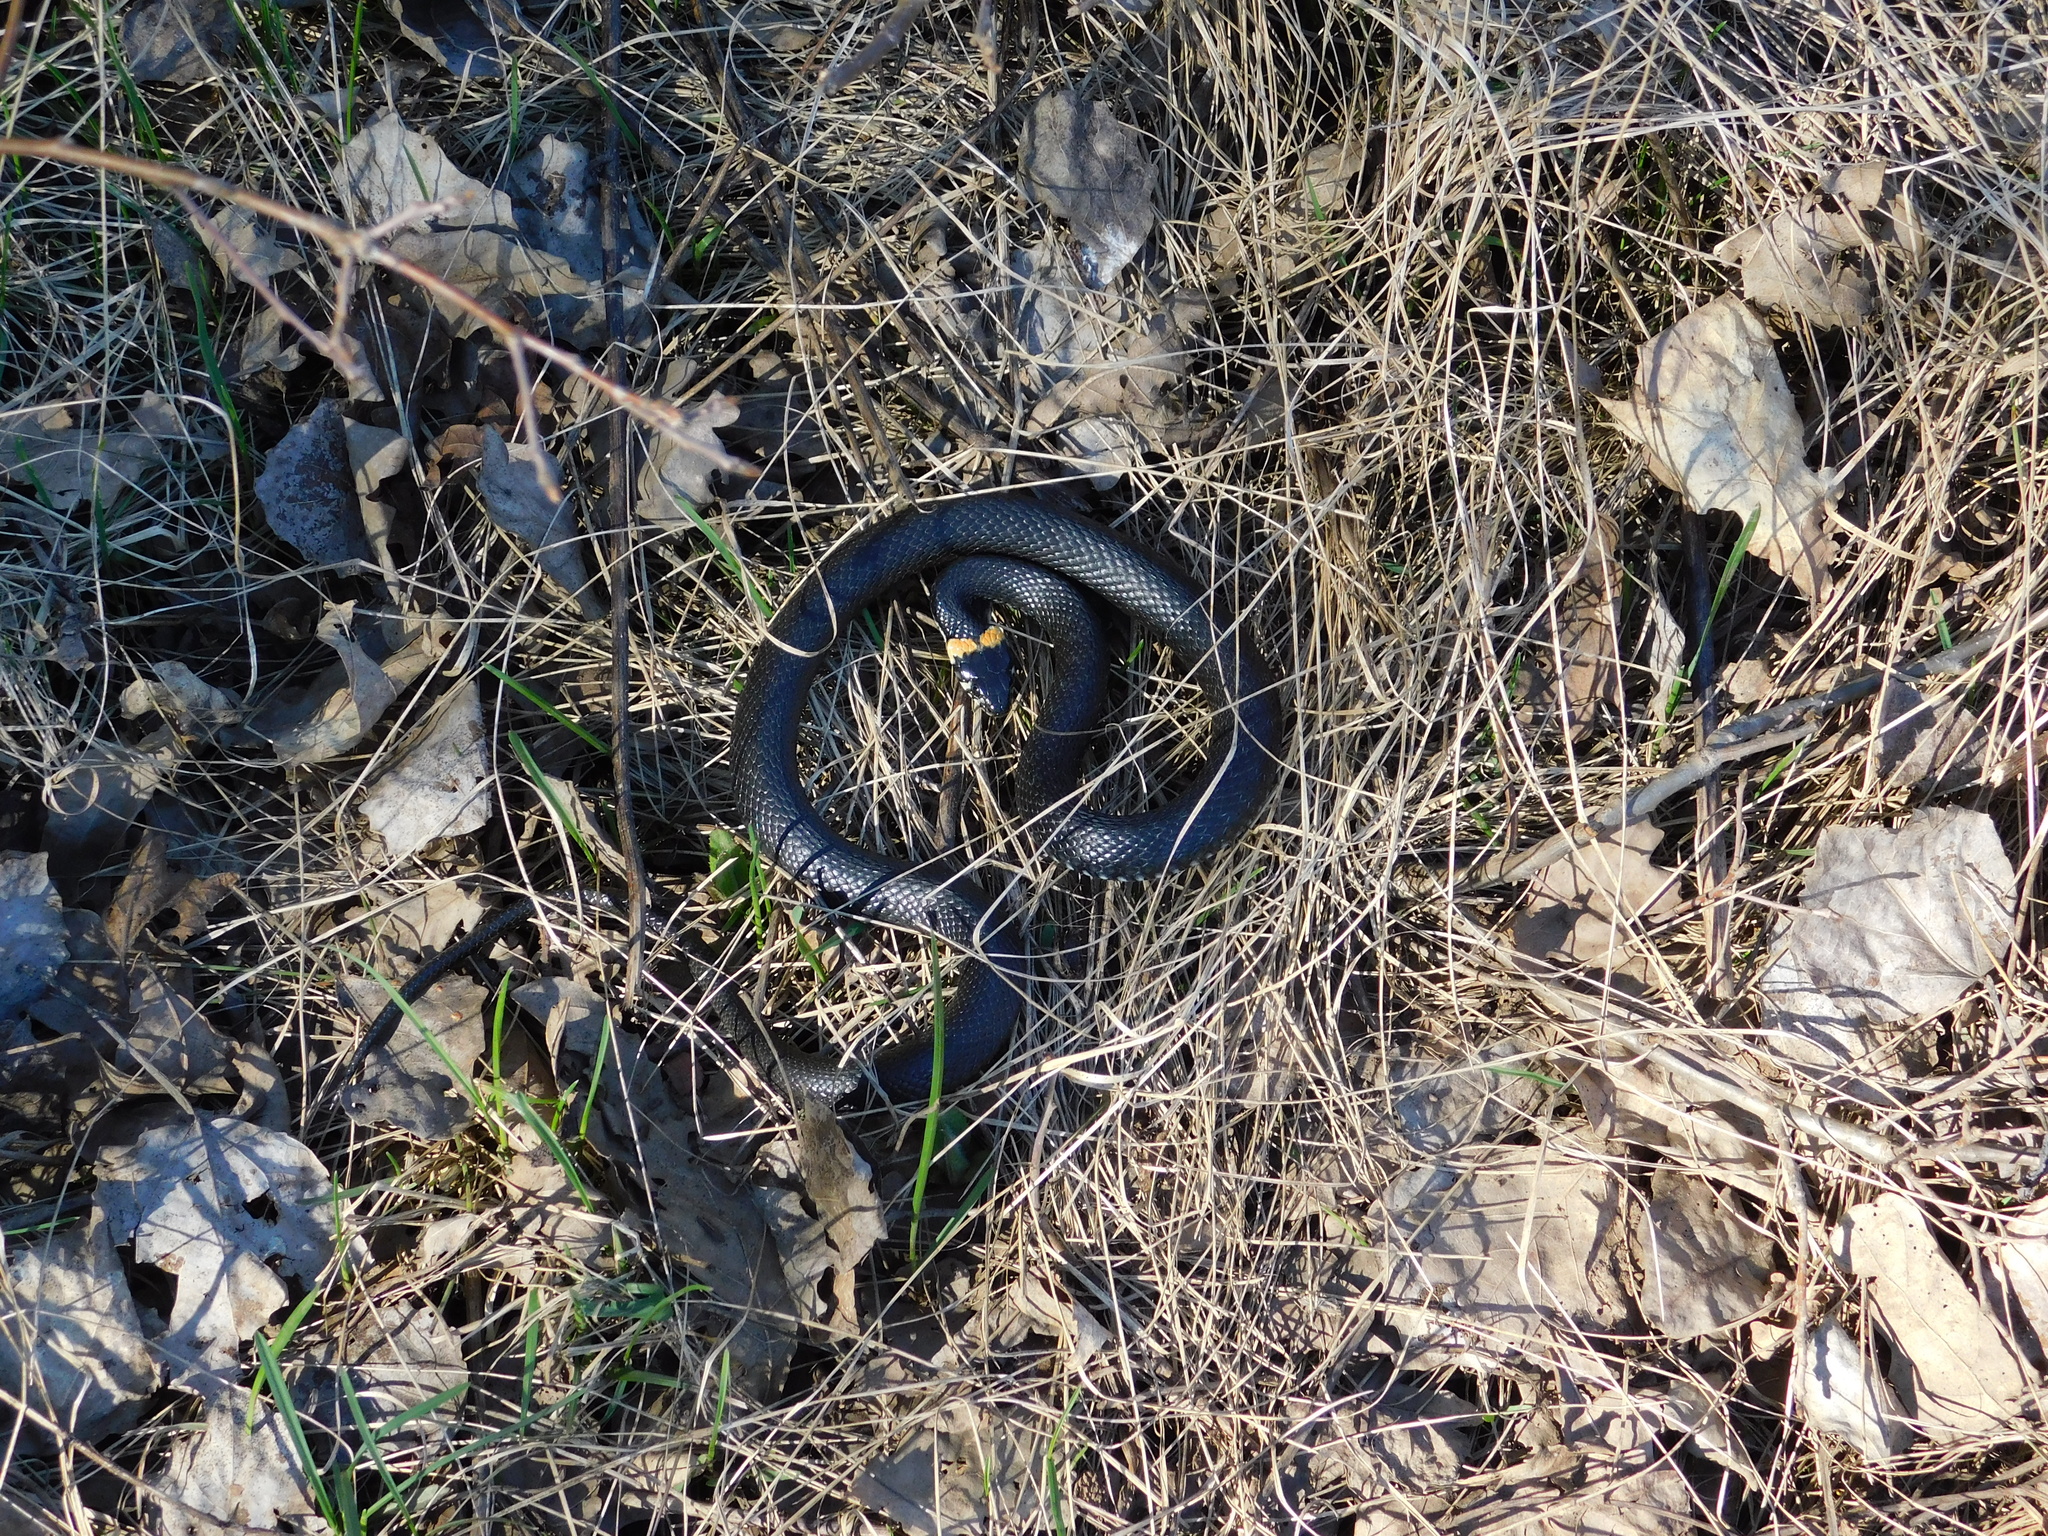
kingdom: Animalia
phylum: Chordata
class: Squamata
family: Colubridae
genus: Natrix
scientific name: Natrix natrix
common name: Grass snake
